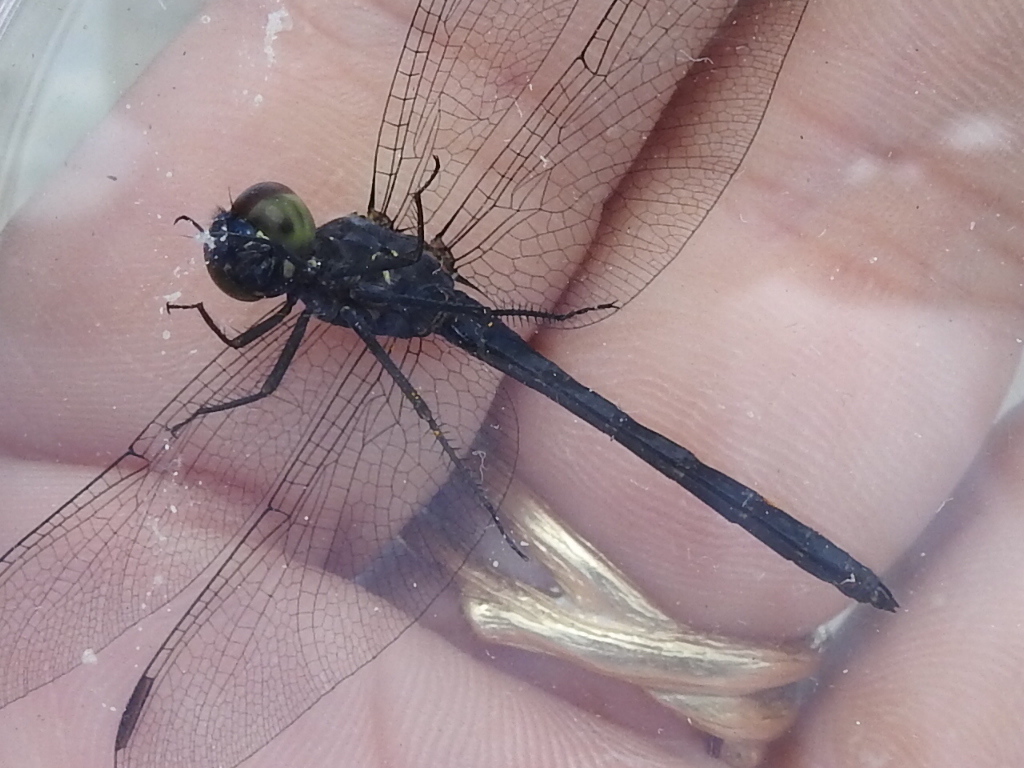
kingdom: Animalia
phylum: Arthropoda
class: Insecta
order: Odonata
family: Libellulidae
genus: Erythrodiplax
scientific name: Erythrodiplax berenice
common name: Seaside dragonlet
